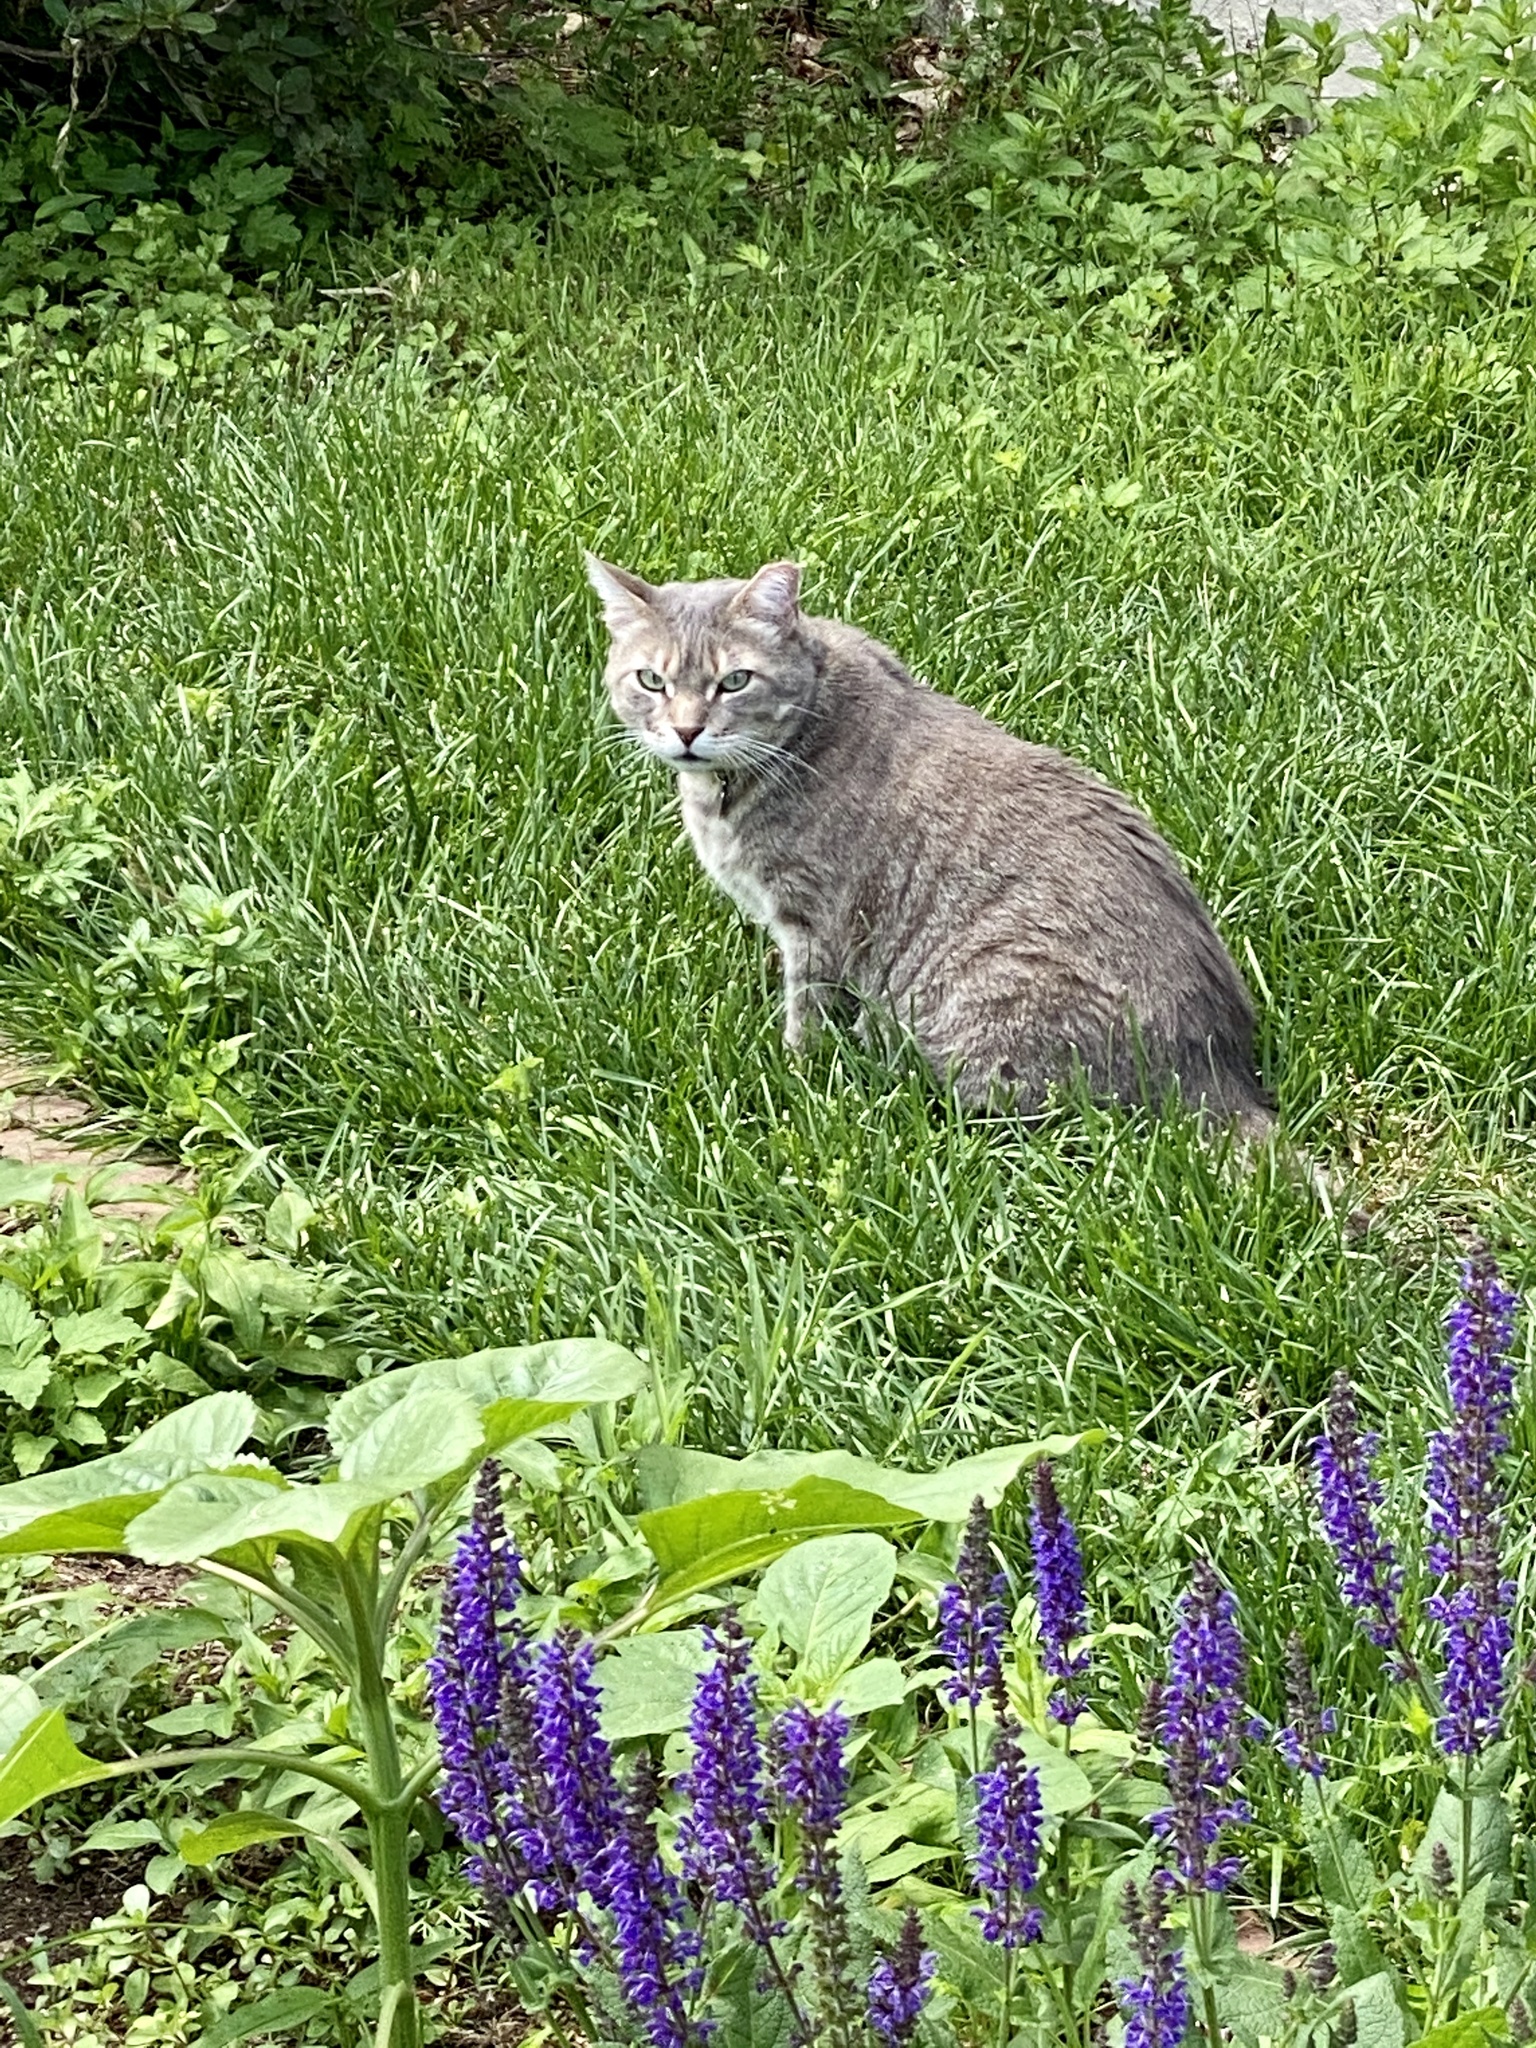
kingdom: Animalia
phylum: Chordata
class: Mammalia
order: Carnivora
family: Felidae
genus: Felis
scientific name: Felis catus
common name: Domestic cat
